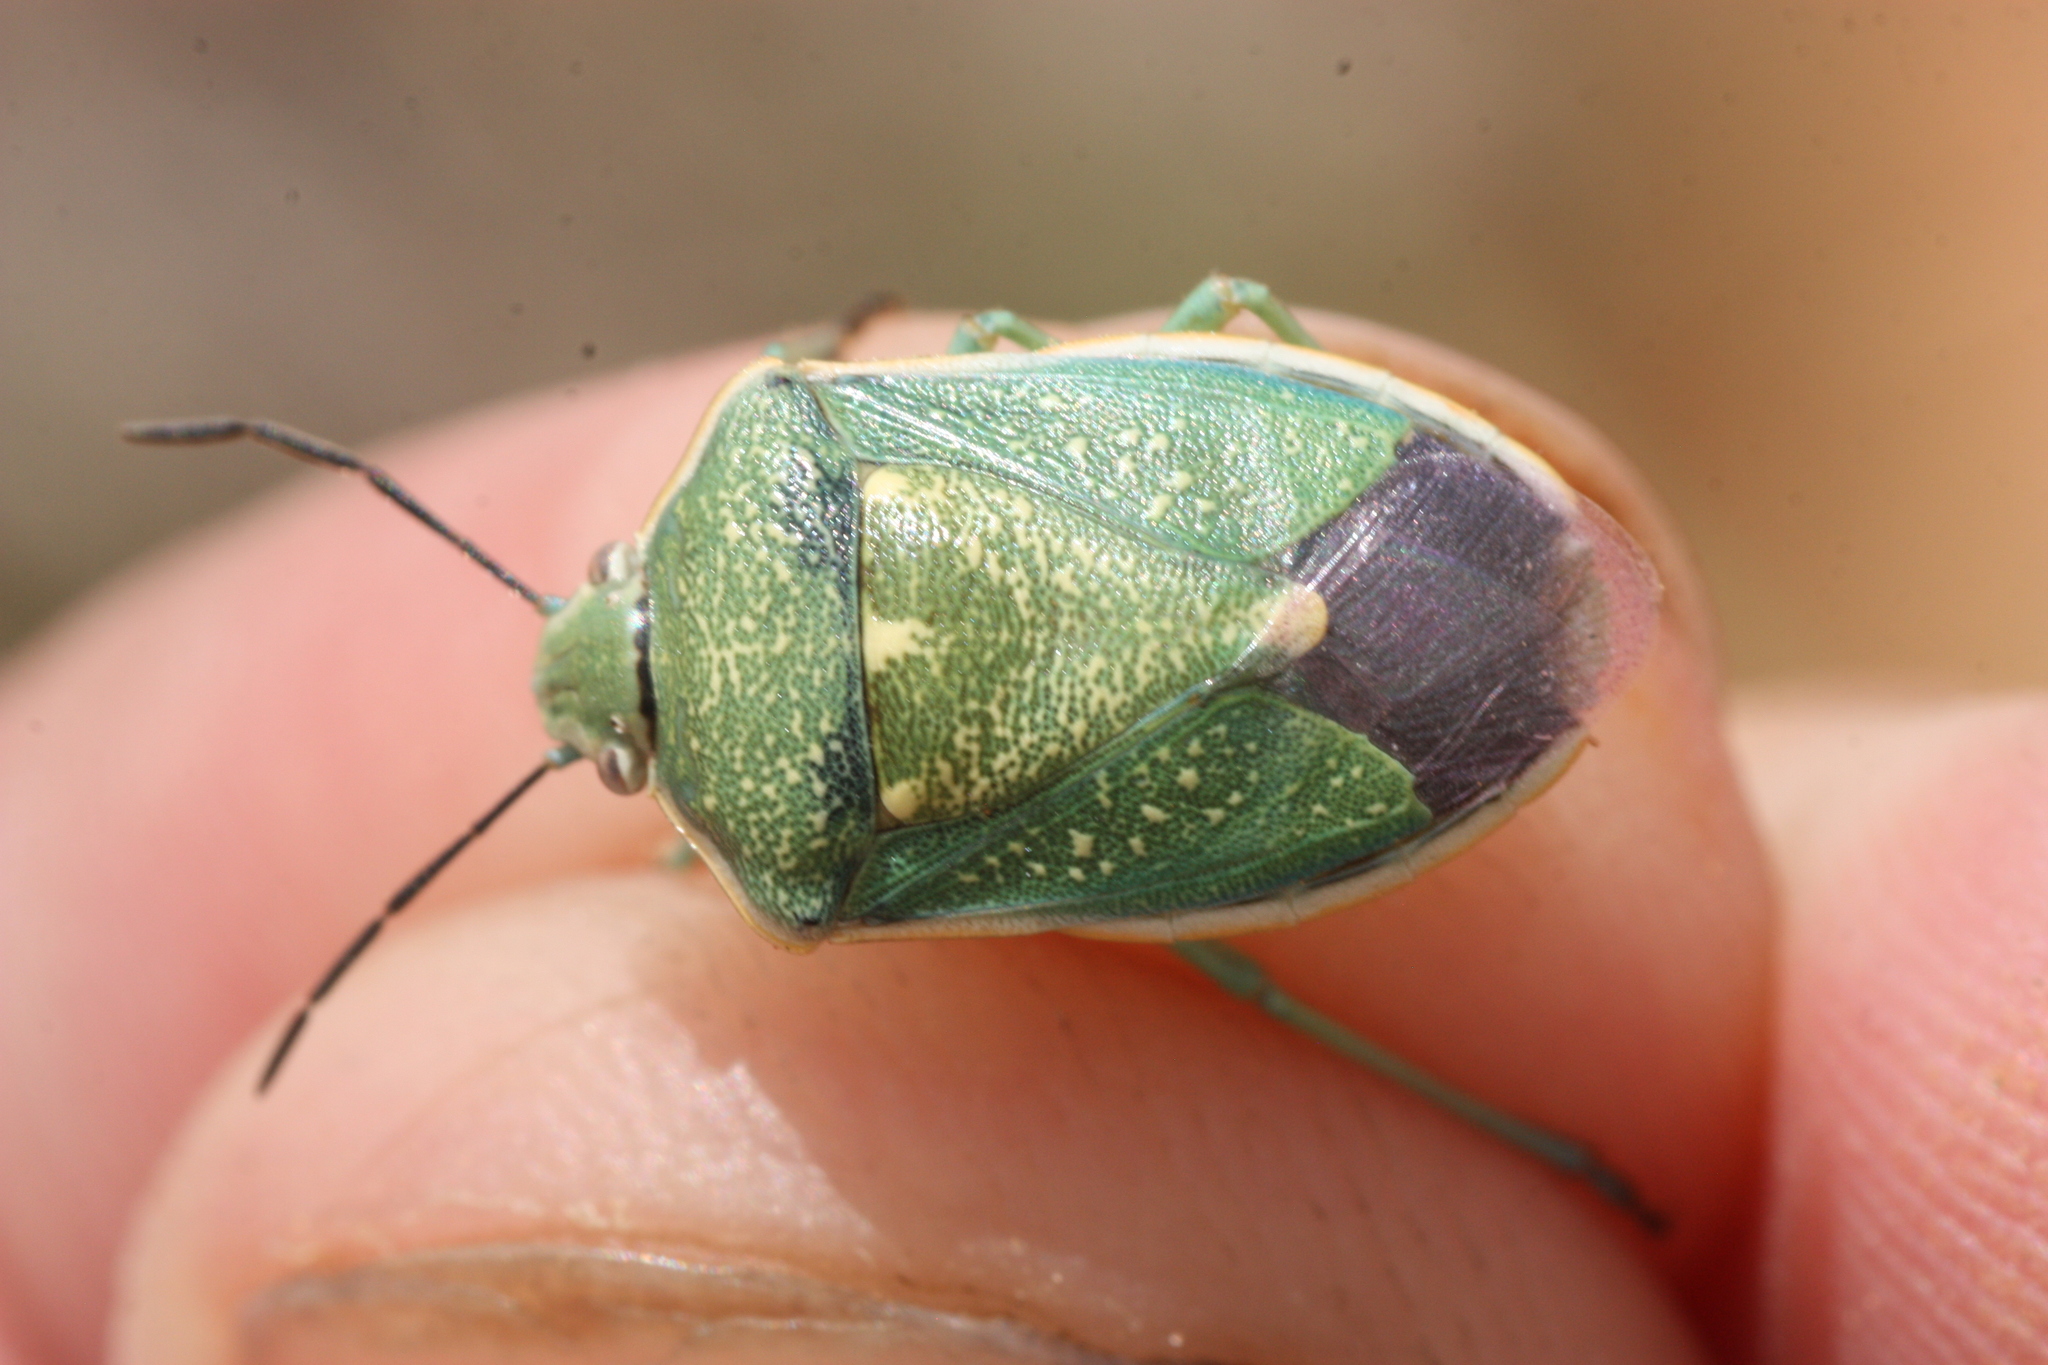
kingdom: Animalia
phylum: Arthropoda
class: Insecta
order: Hemiptera
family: Pentatomidae
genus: Chlorochroa
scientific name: Chlorochroa sayi
